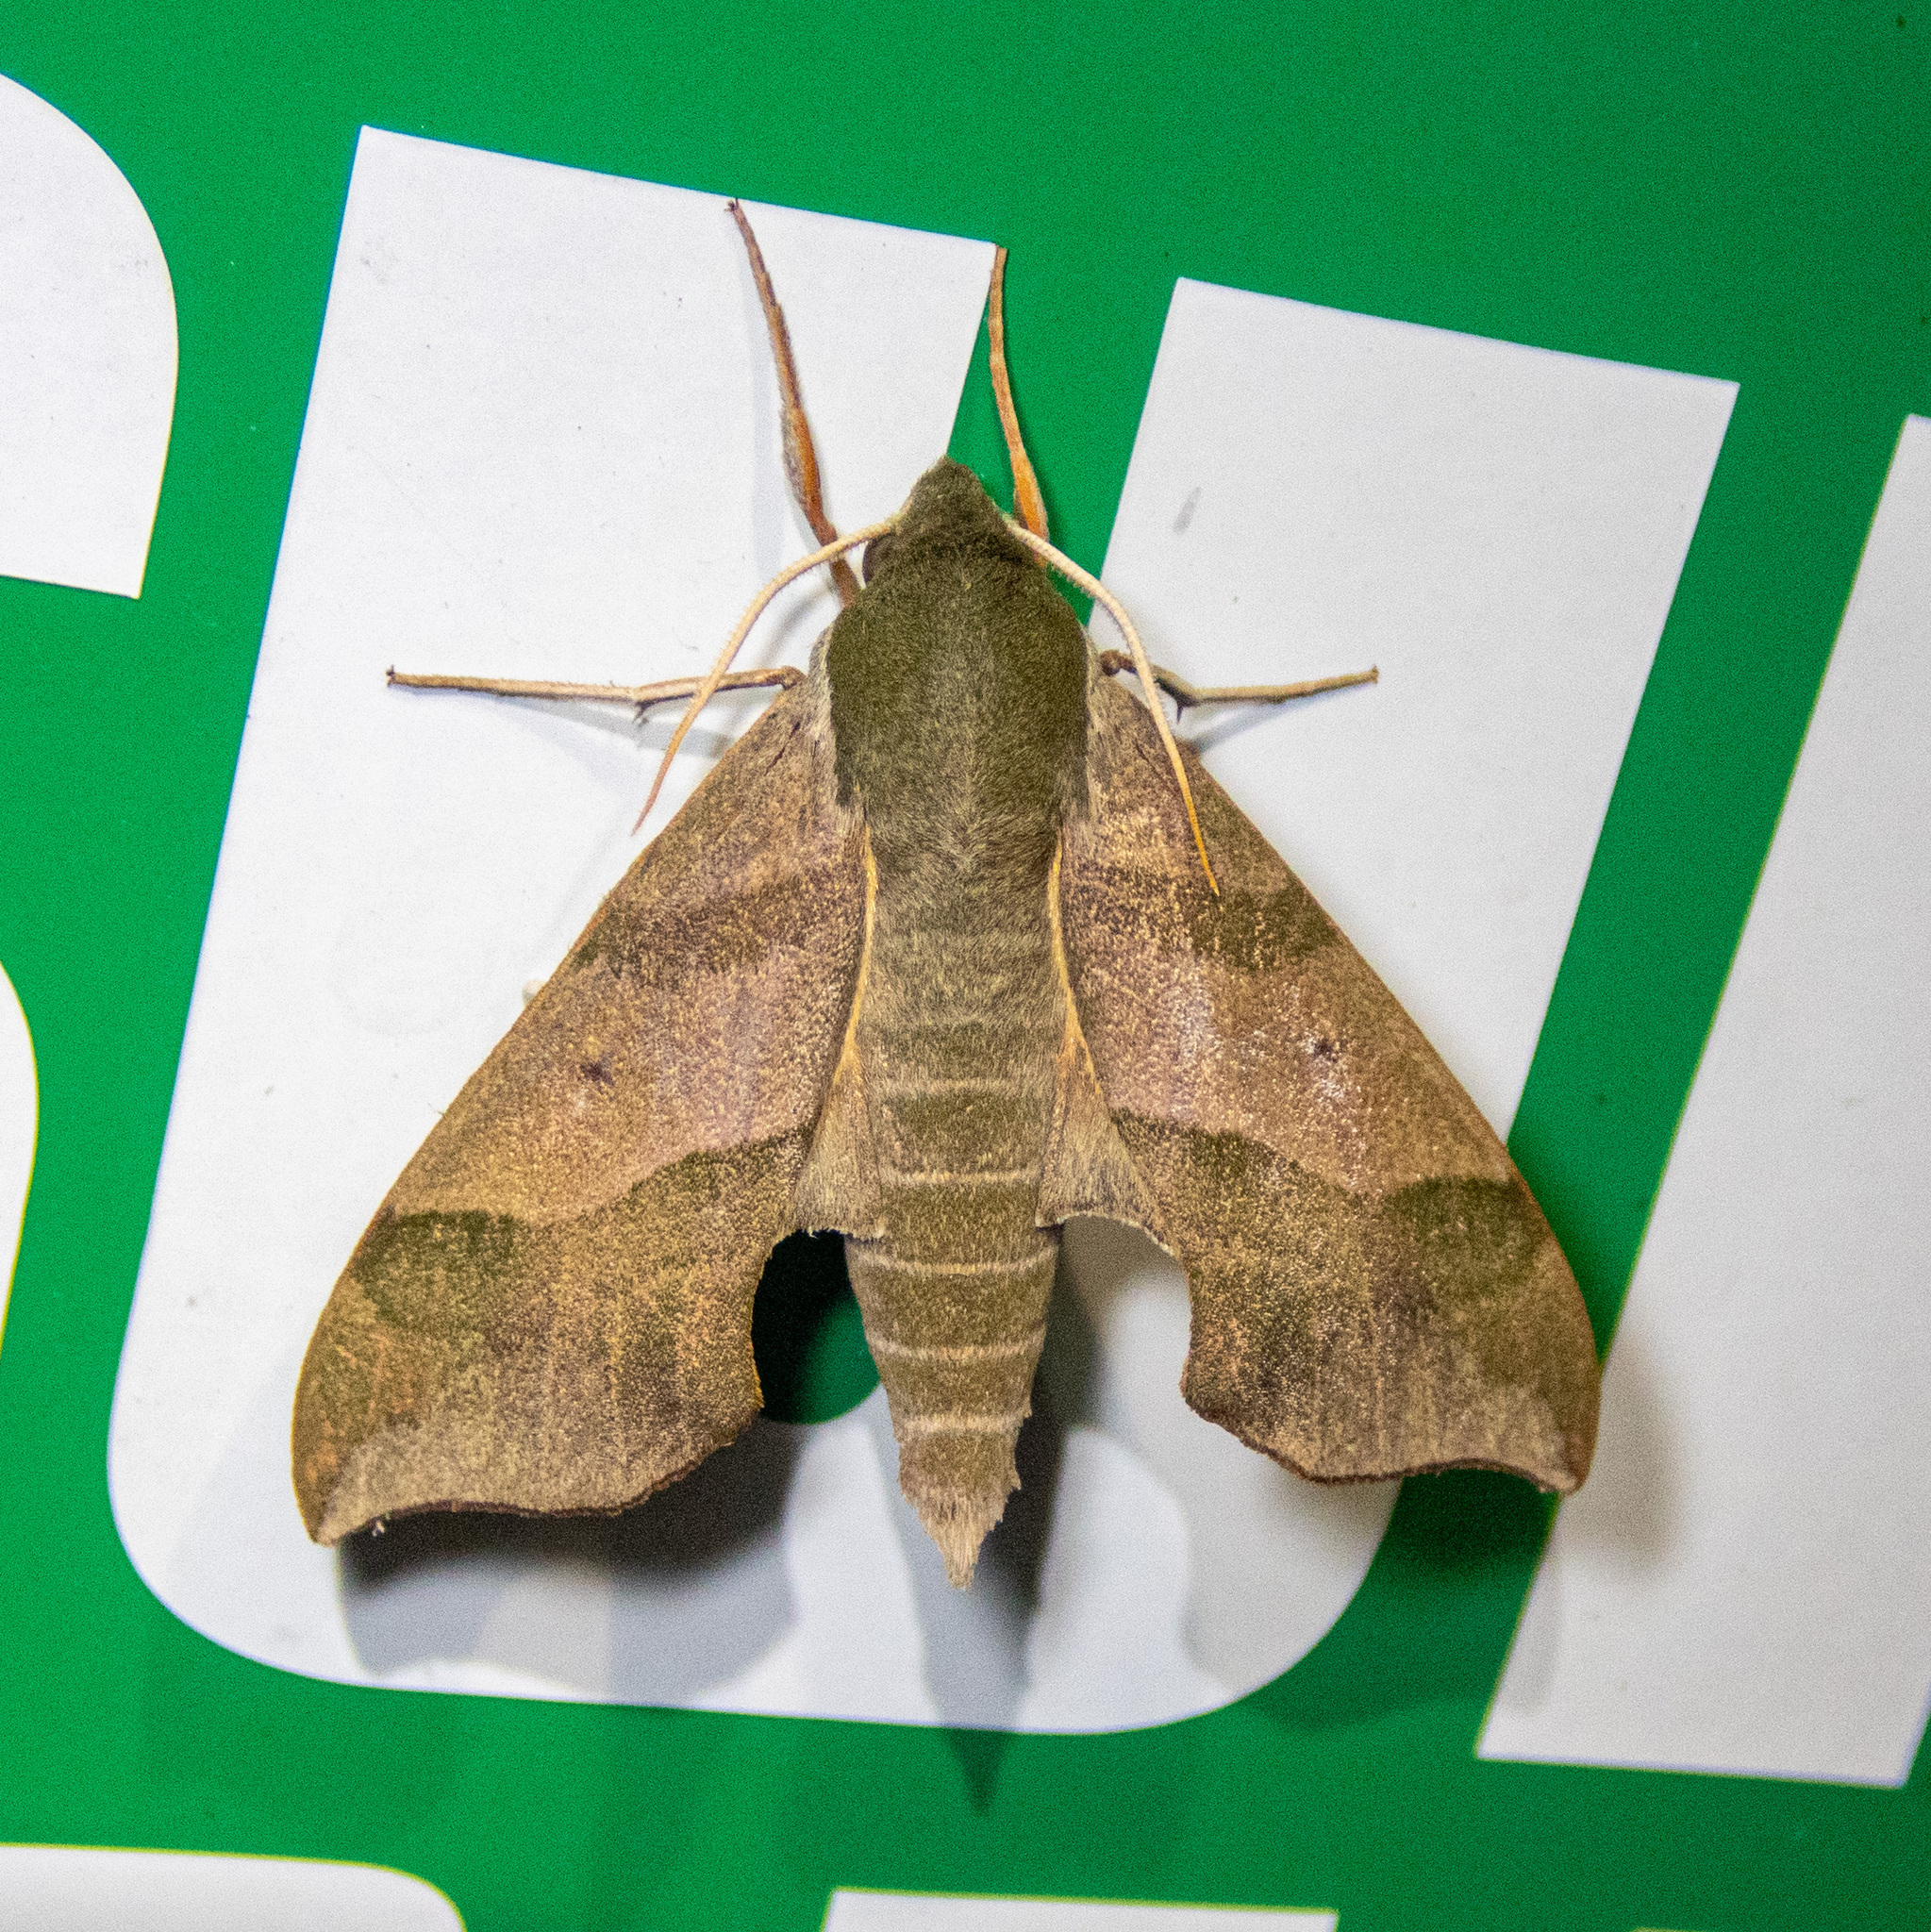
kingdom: Animalia
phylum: Arthropoda
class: Insecta
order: Lepidoptera
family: Sphingidae
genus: Darapsa
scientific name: Darapsa myron
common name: Hog sphinx
